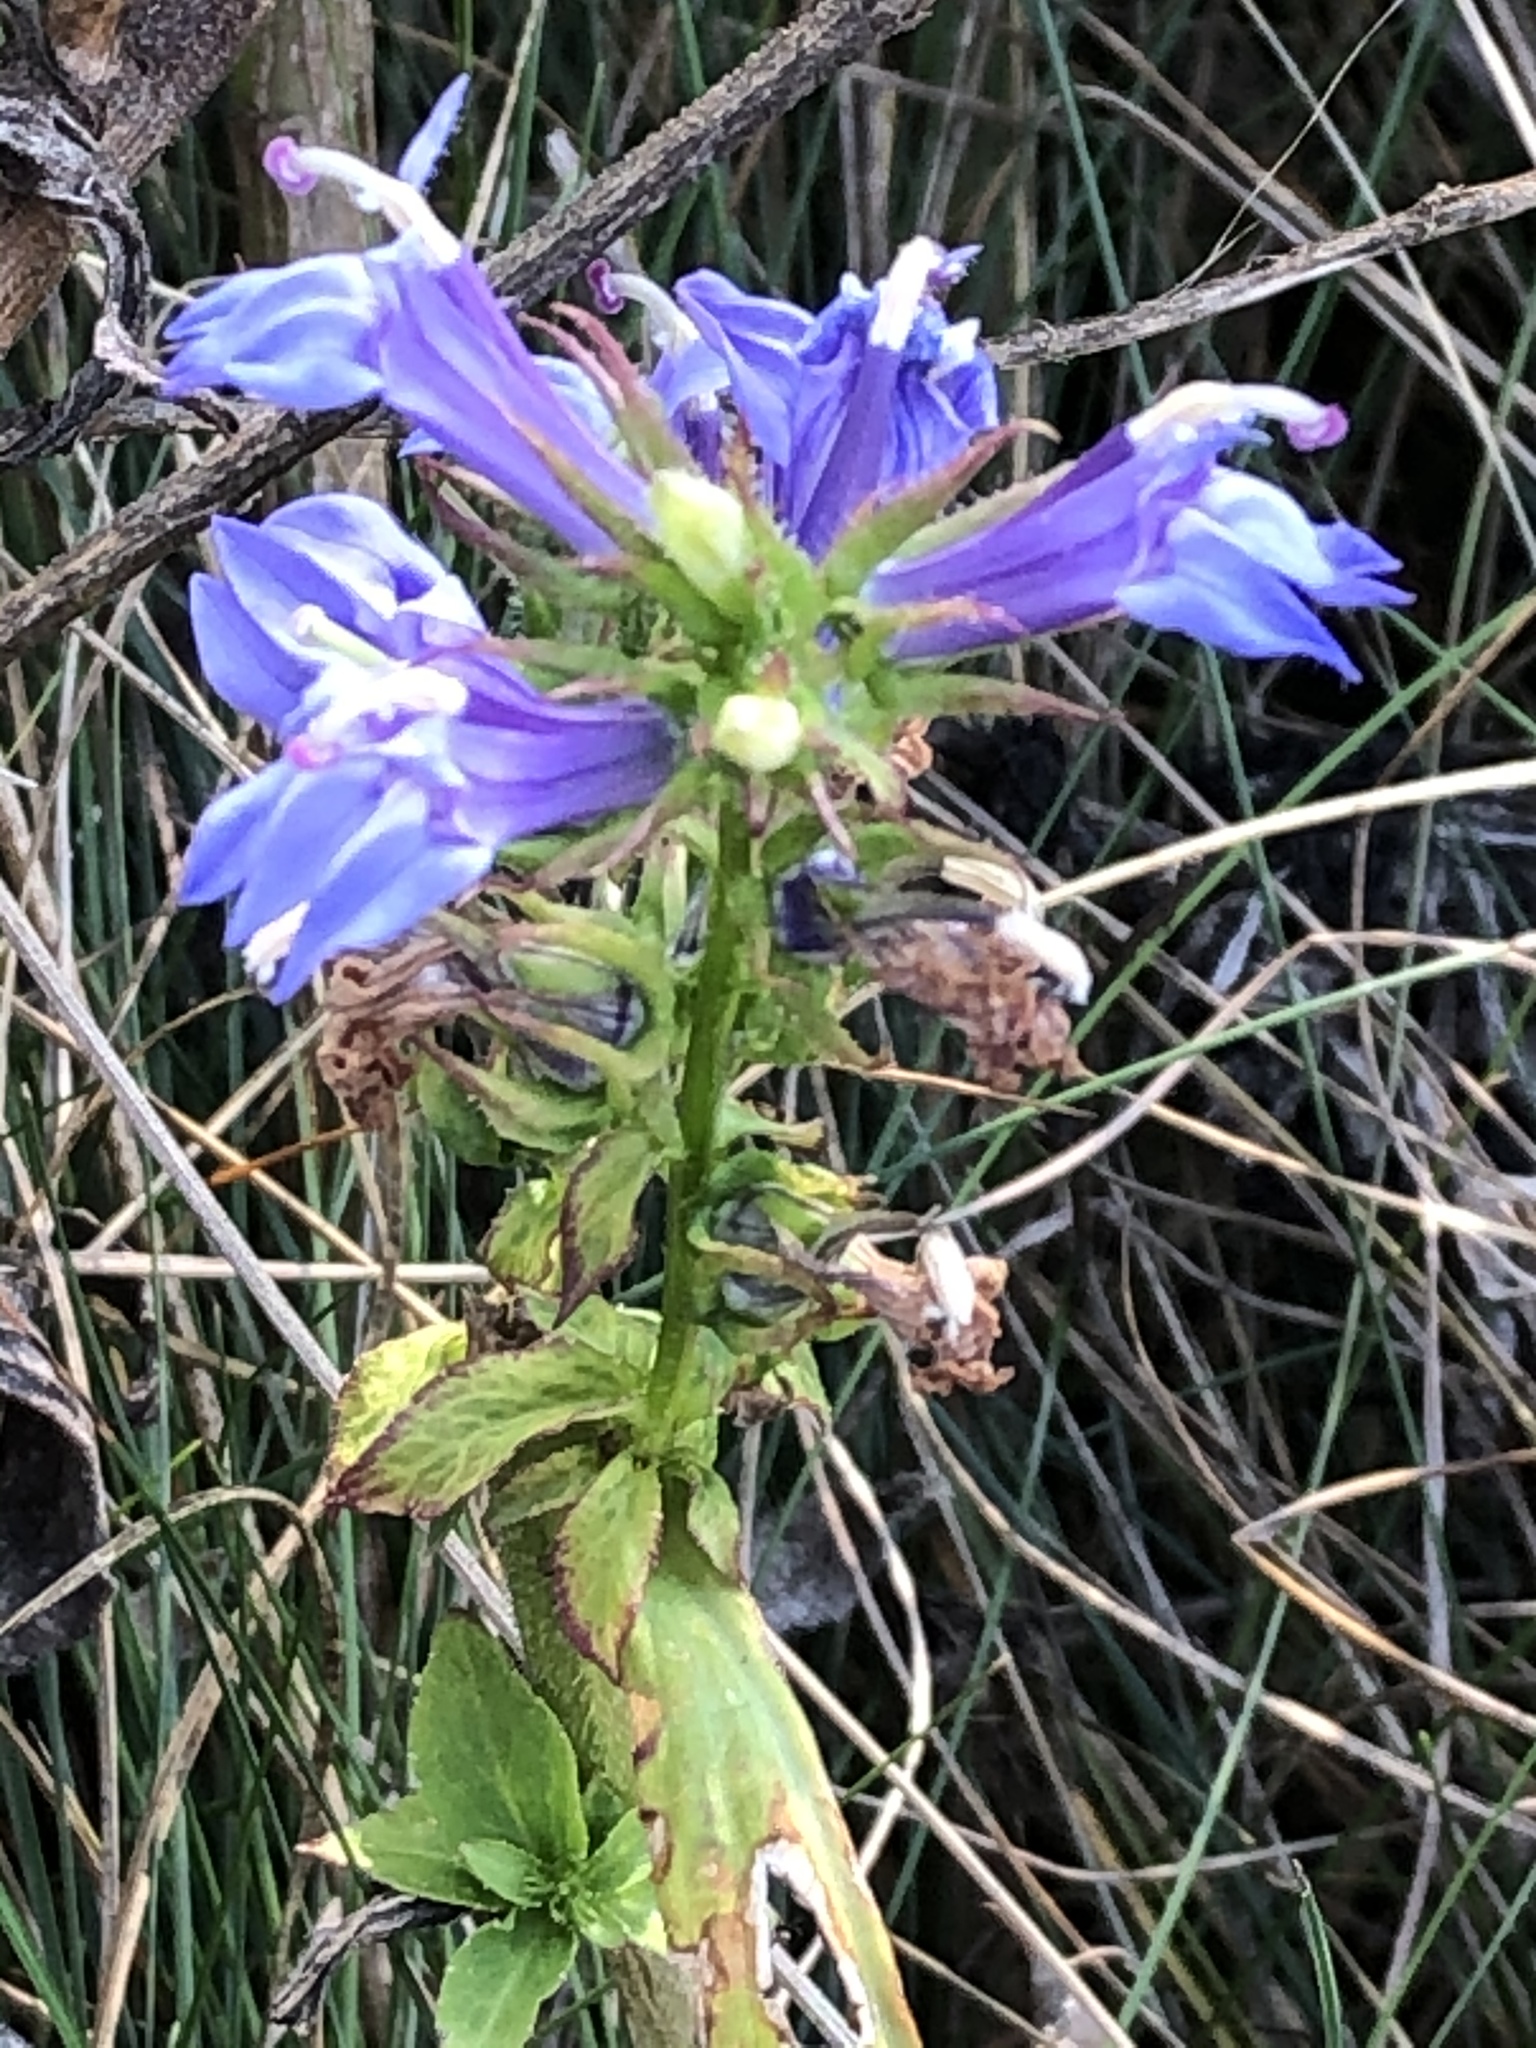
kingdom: Plantae
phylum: Tracheophyta
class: Magnoliopsida
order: Asterales
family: Campanulaceae
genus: Lobelia
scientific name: Lobelia siphilitica
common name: Great lobelia
